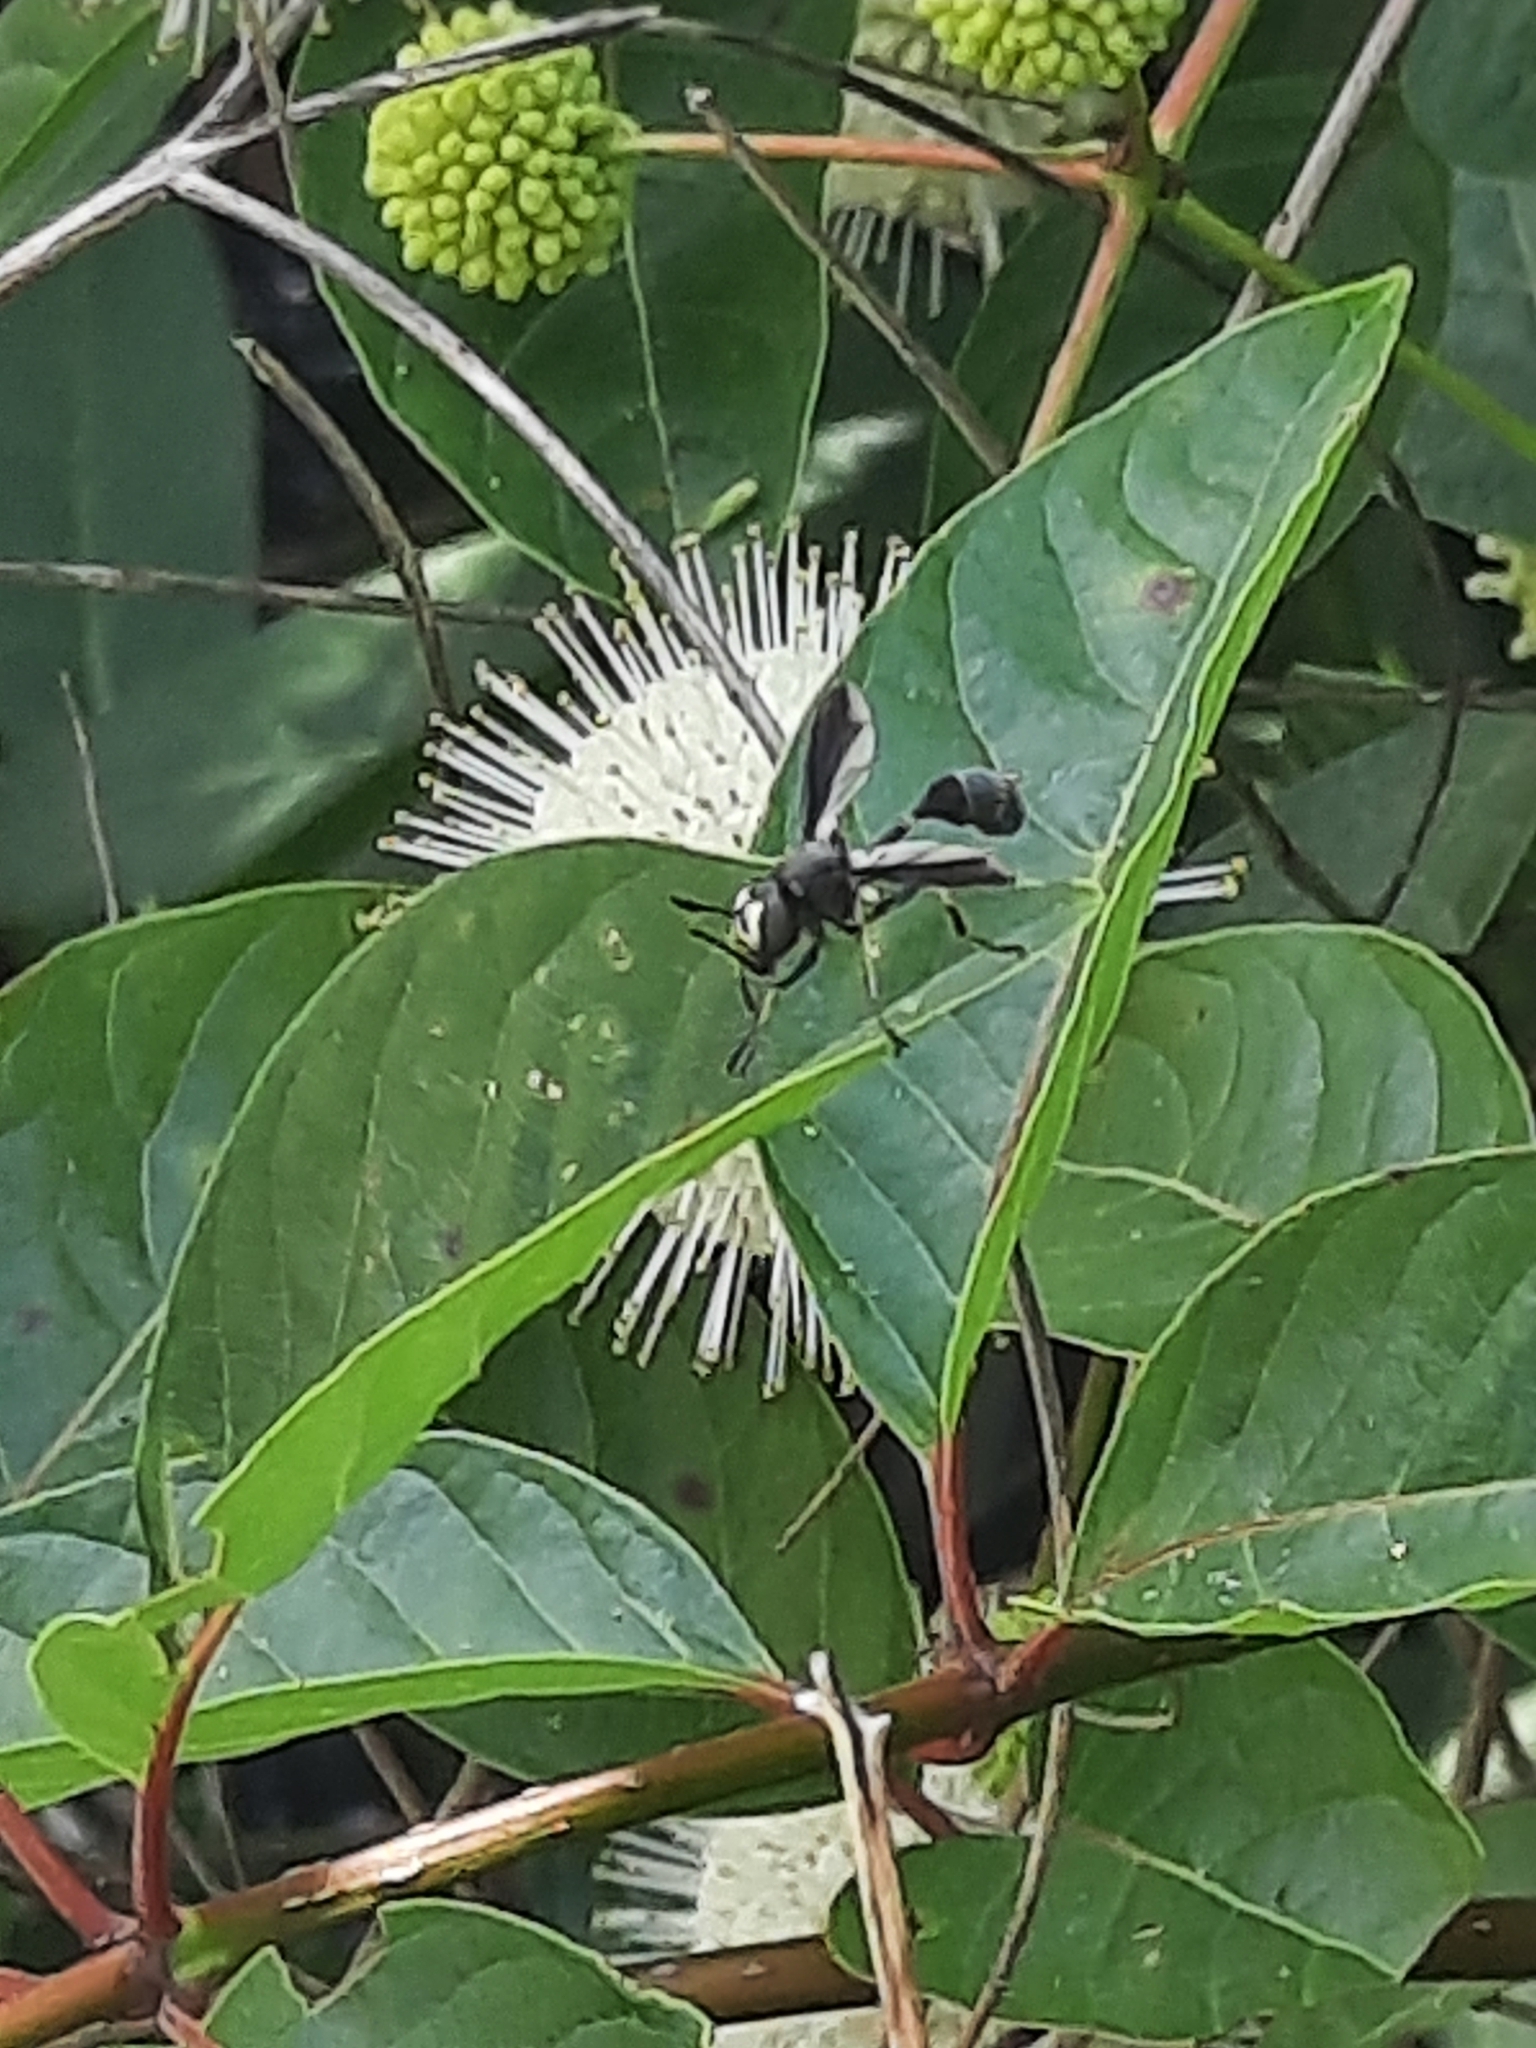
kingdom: Animalia
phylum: Arthropoda
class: Insecta
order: Diptera
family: Conopidae
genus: Physocephala
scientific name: Physocephala tibialis
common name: Common eastern physocephala
